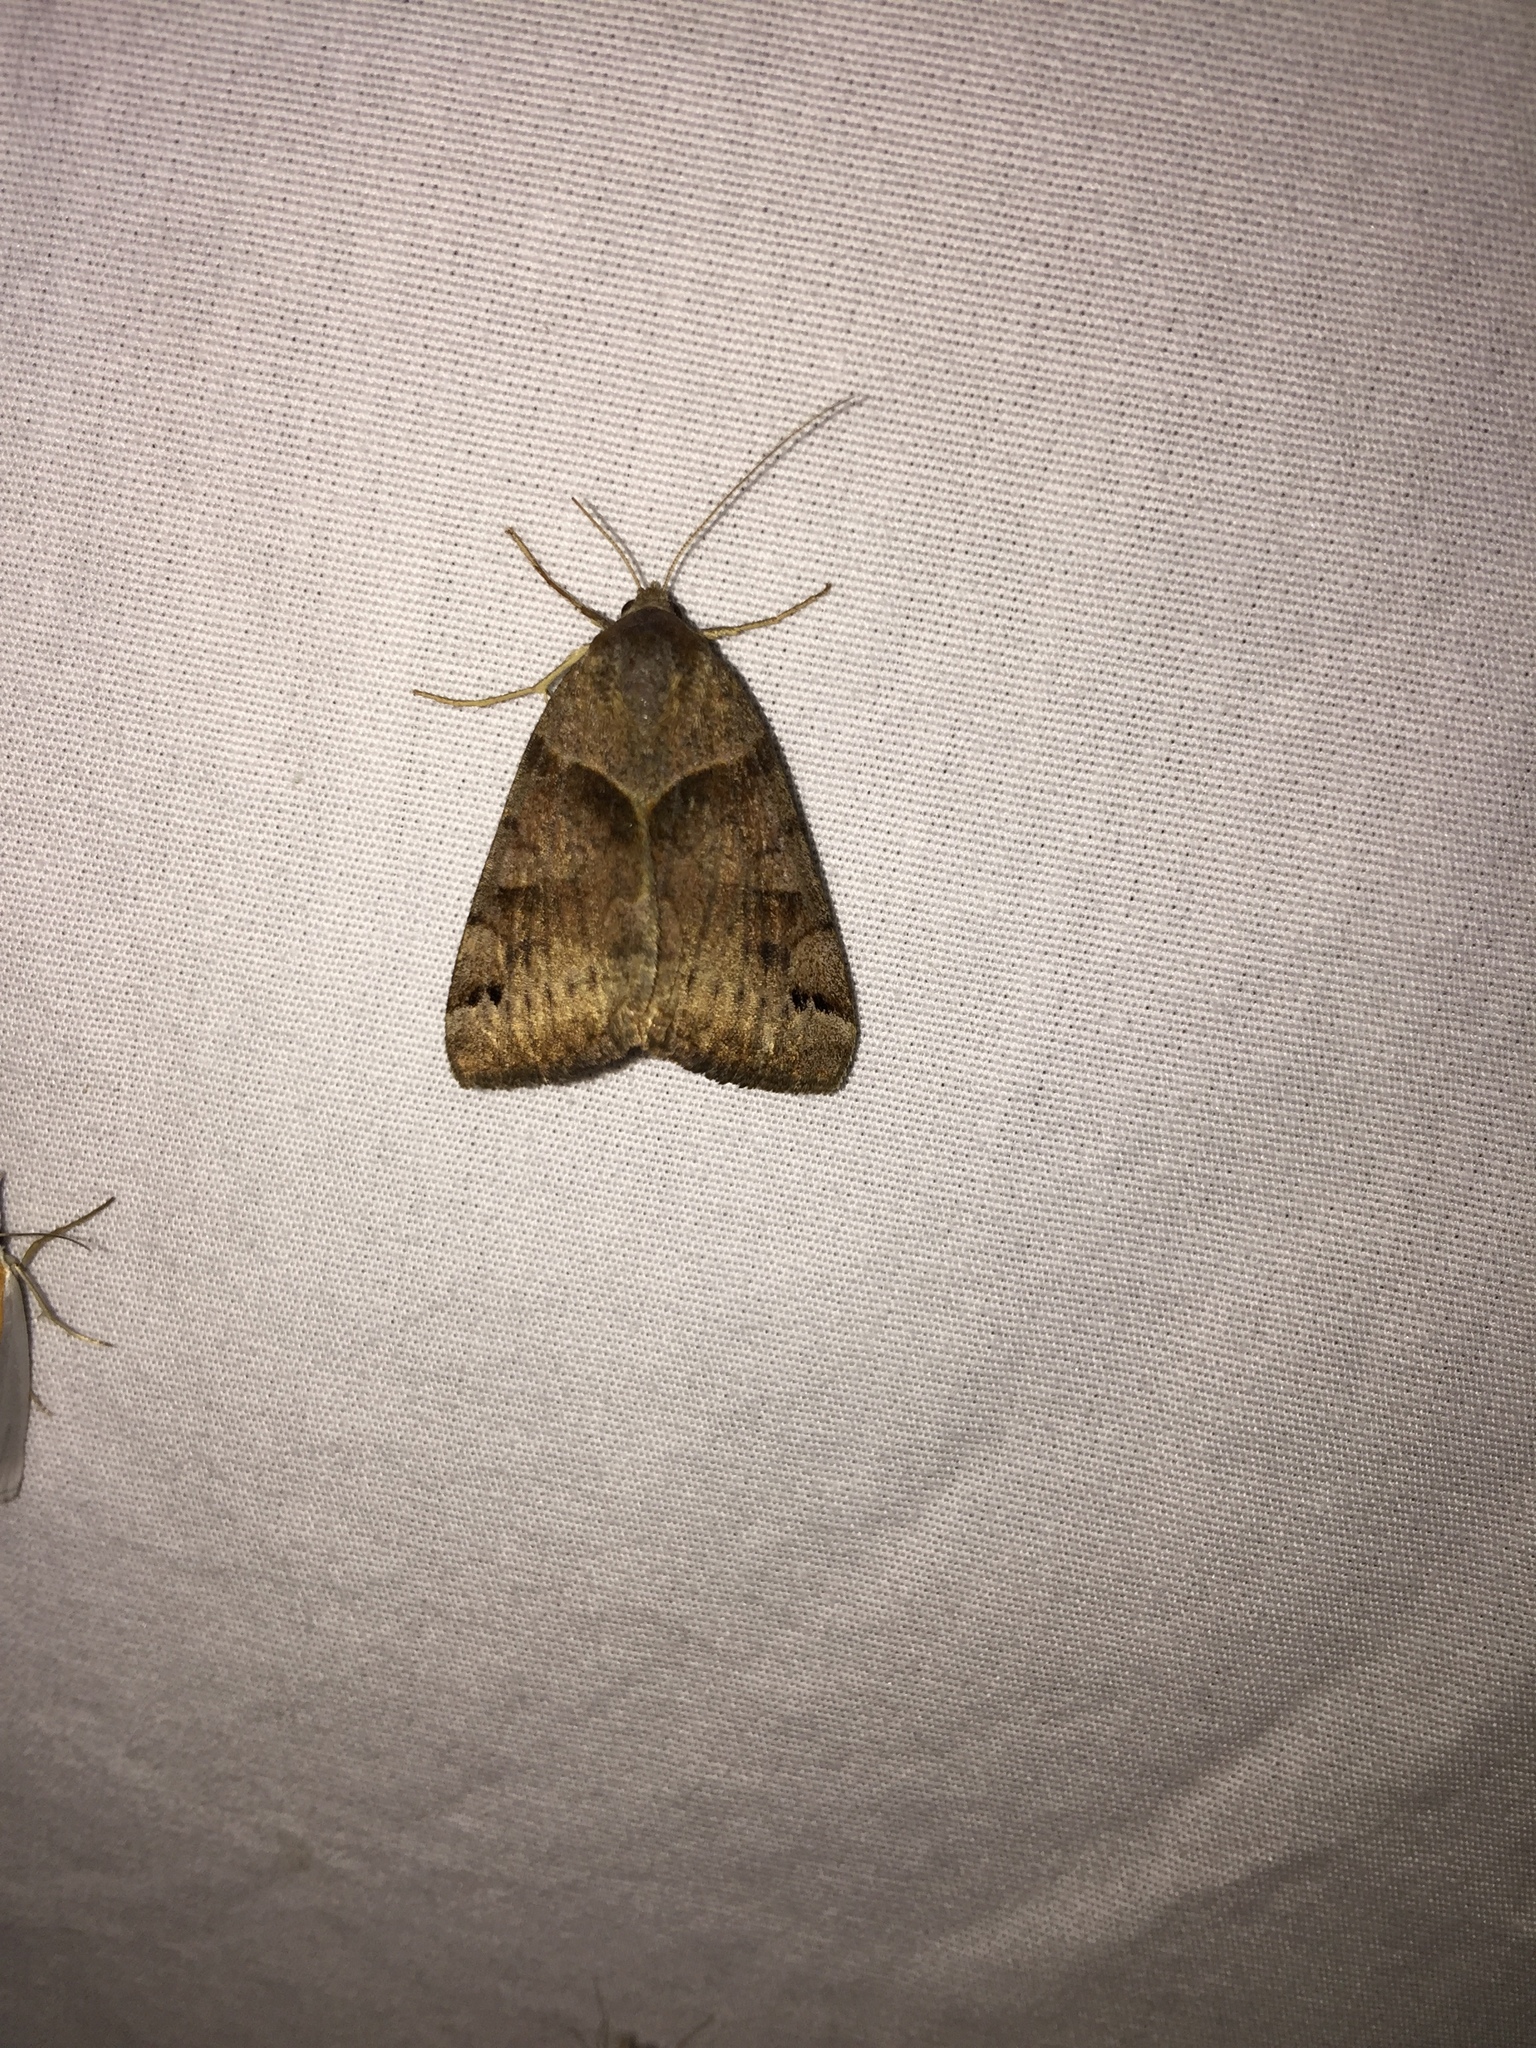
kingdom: Animalia
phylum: Arthropoda
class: Insecta
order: Lepidoptera
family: Erebidae
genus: Caenurgina
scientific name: Caenurgina crassiuscula
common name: Double-barred
